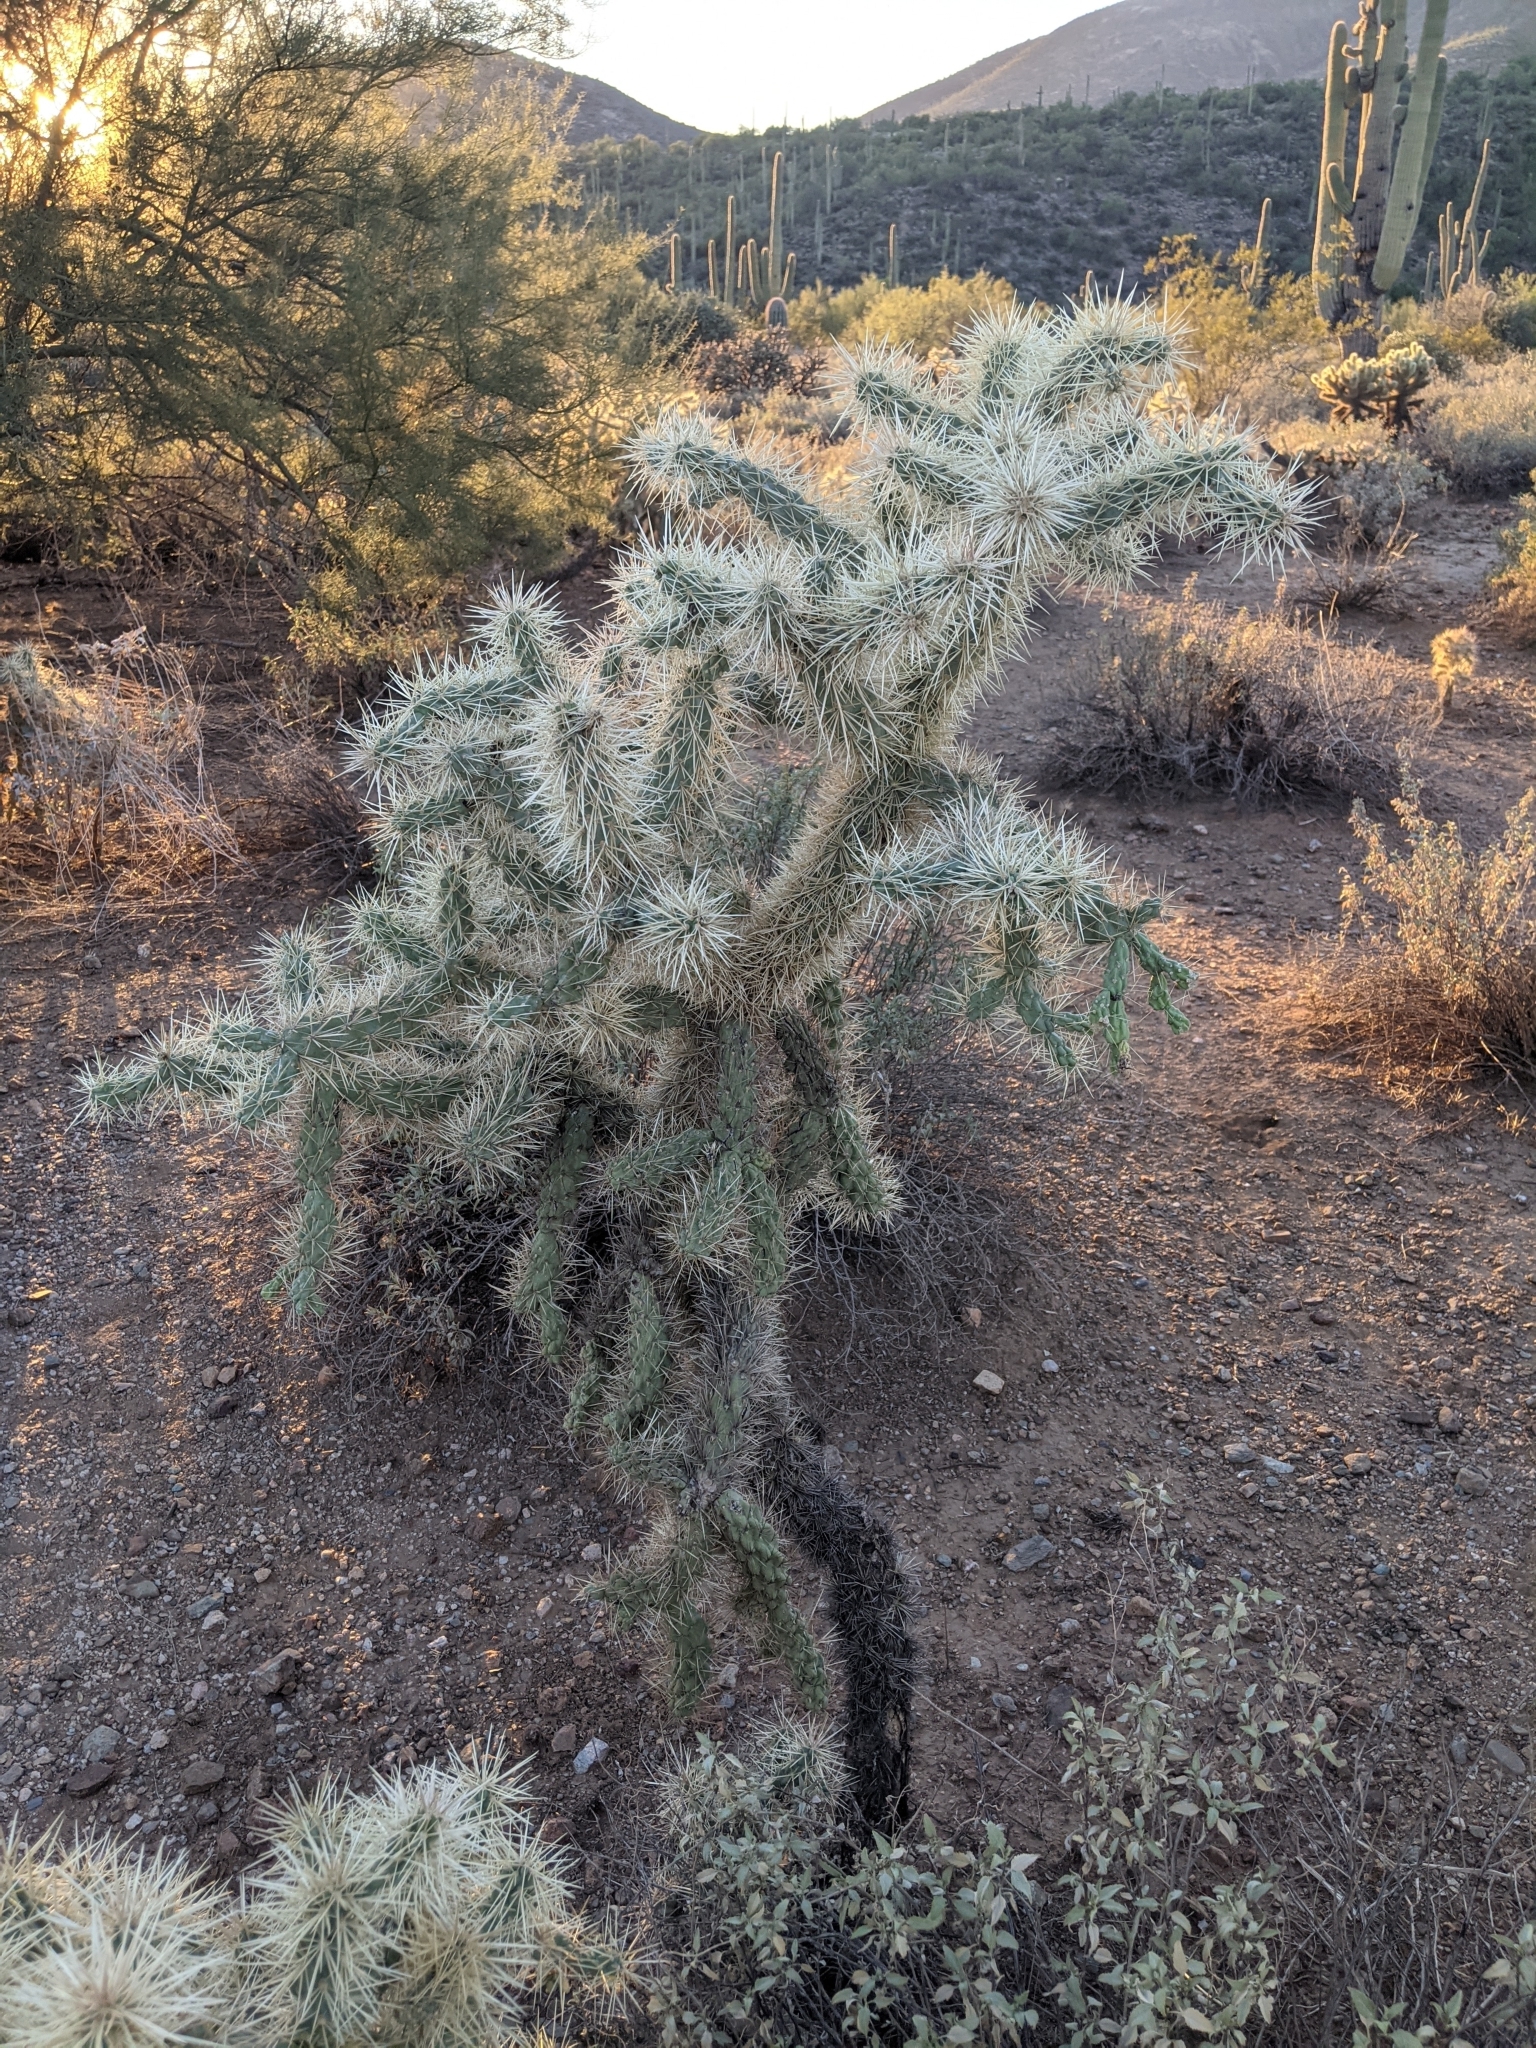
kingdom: Plantae
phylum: Tracheophyta
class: Magnoliopsida
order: Caryophyllales
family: Cactaceae
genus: Cylindropuntia
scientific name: Cylindropuntia fulgida
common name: Jumping cholla
